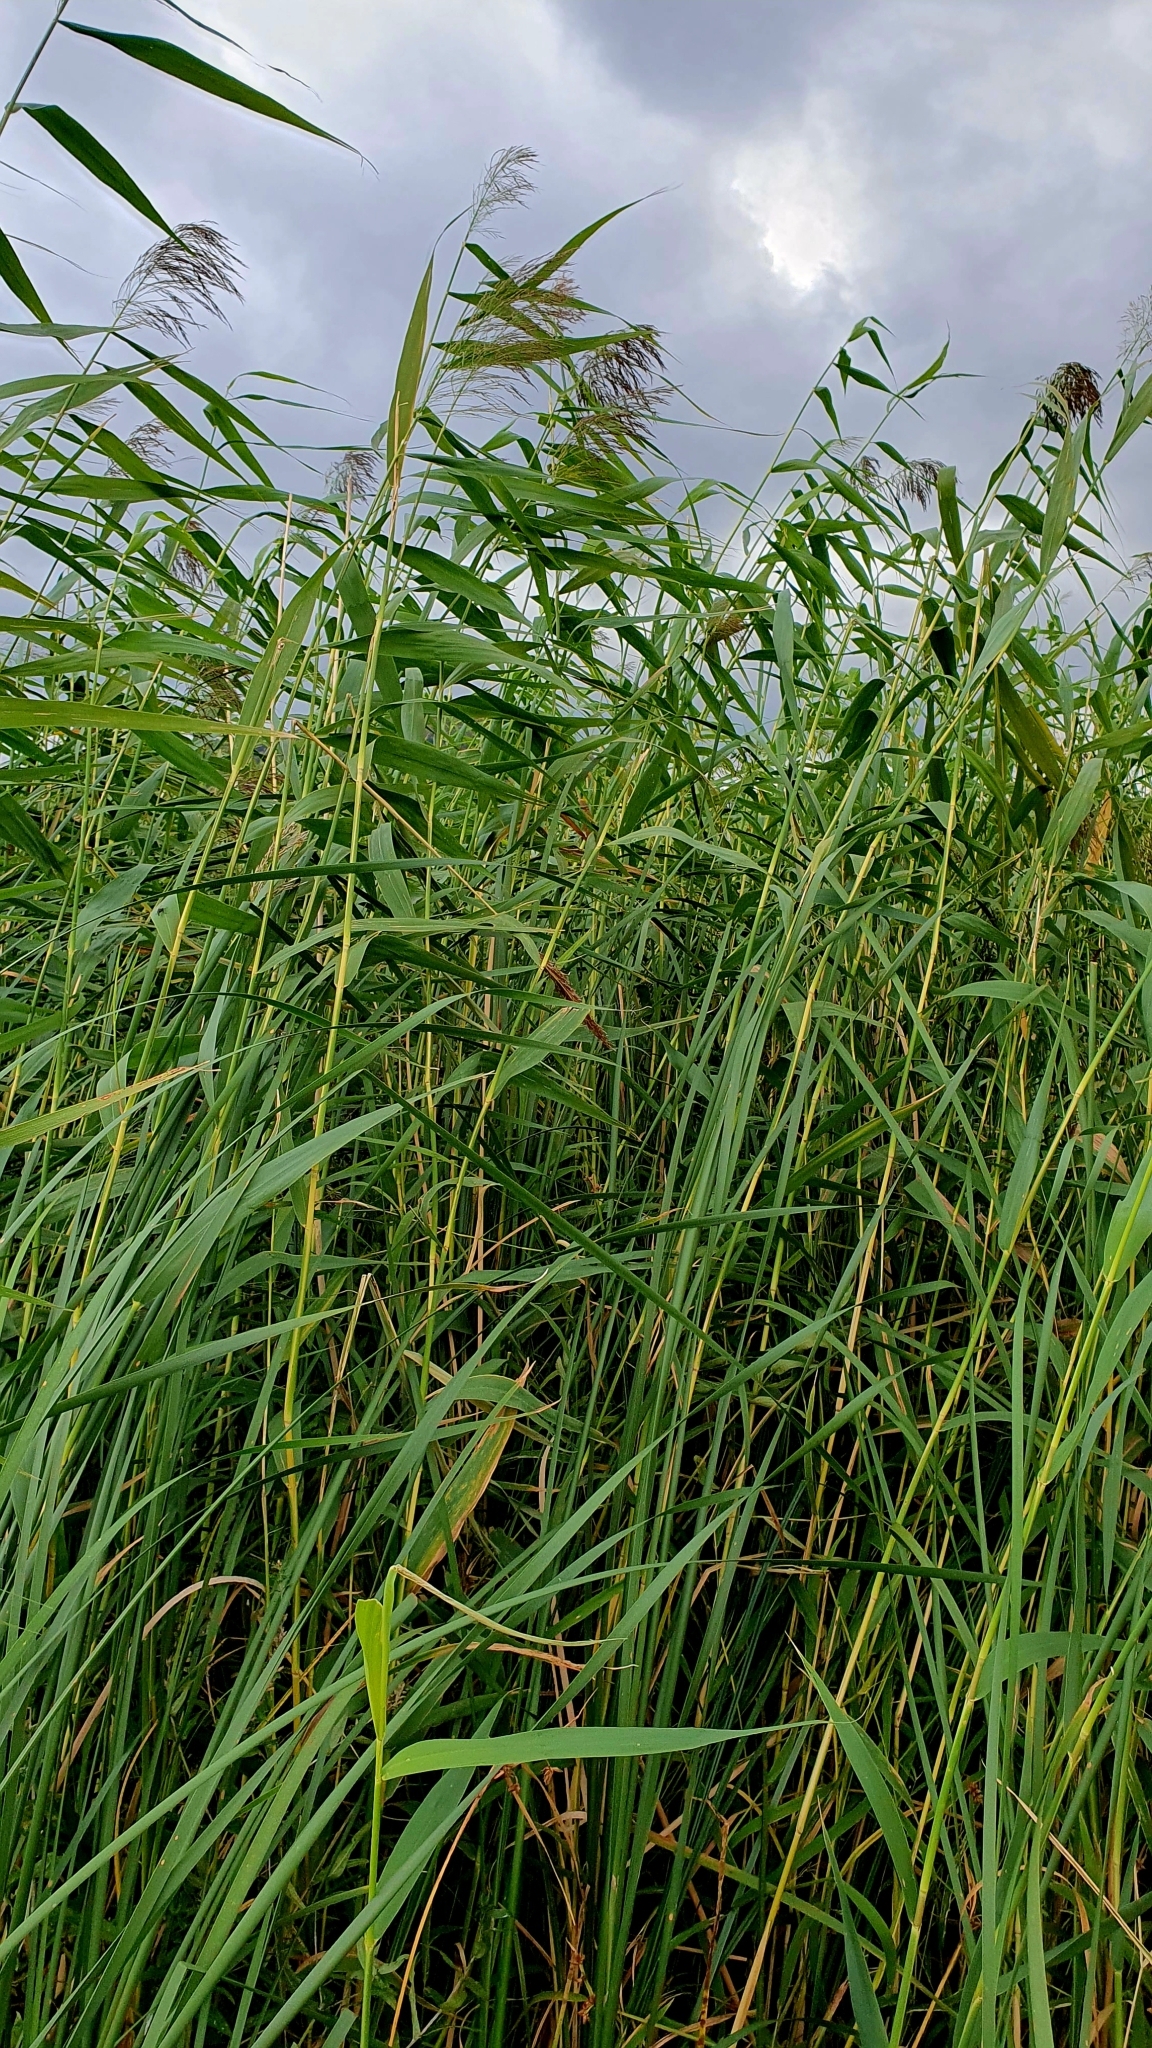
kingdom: Plantae
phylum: Tracheophyta
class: Liliopsida
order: Poales
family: Poaceae
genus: Phragmites
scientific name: Phragmites australis
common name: Common reed
